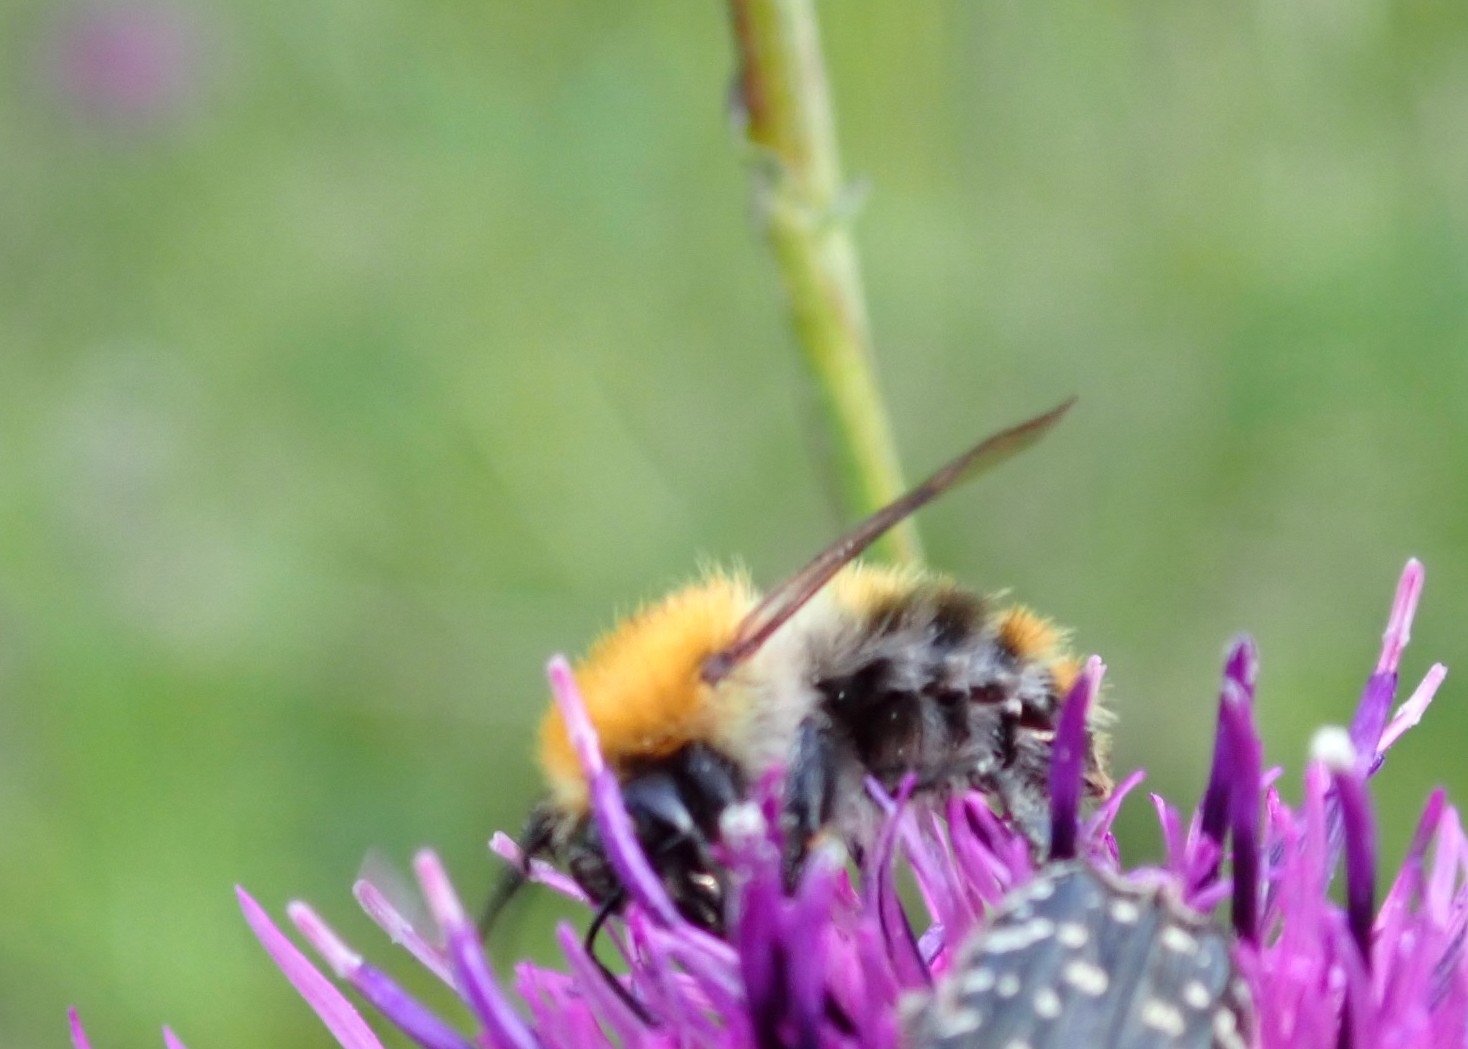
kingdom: Animalia
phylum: Arthropoda
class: Insecta
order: Hymenoptera
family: Apidae
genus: Bombus
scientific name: Bombus pascuorum
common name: Common carder bee
